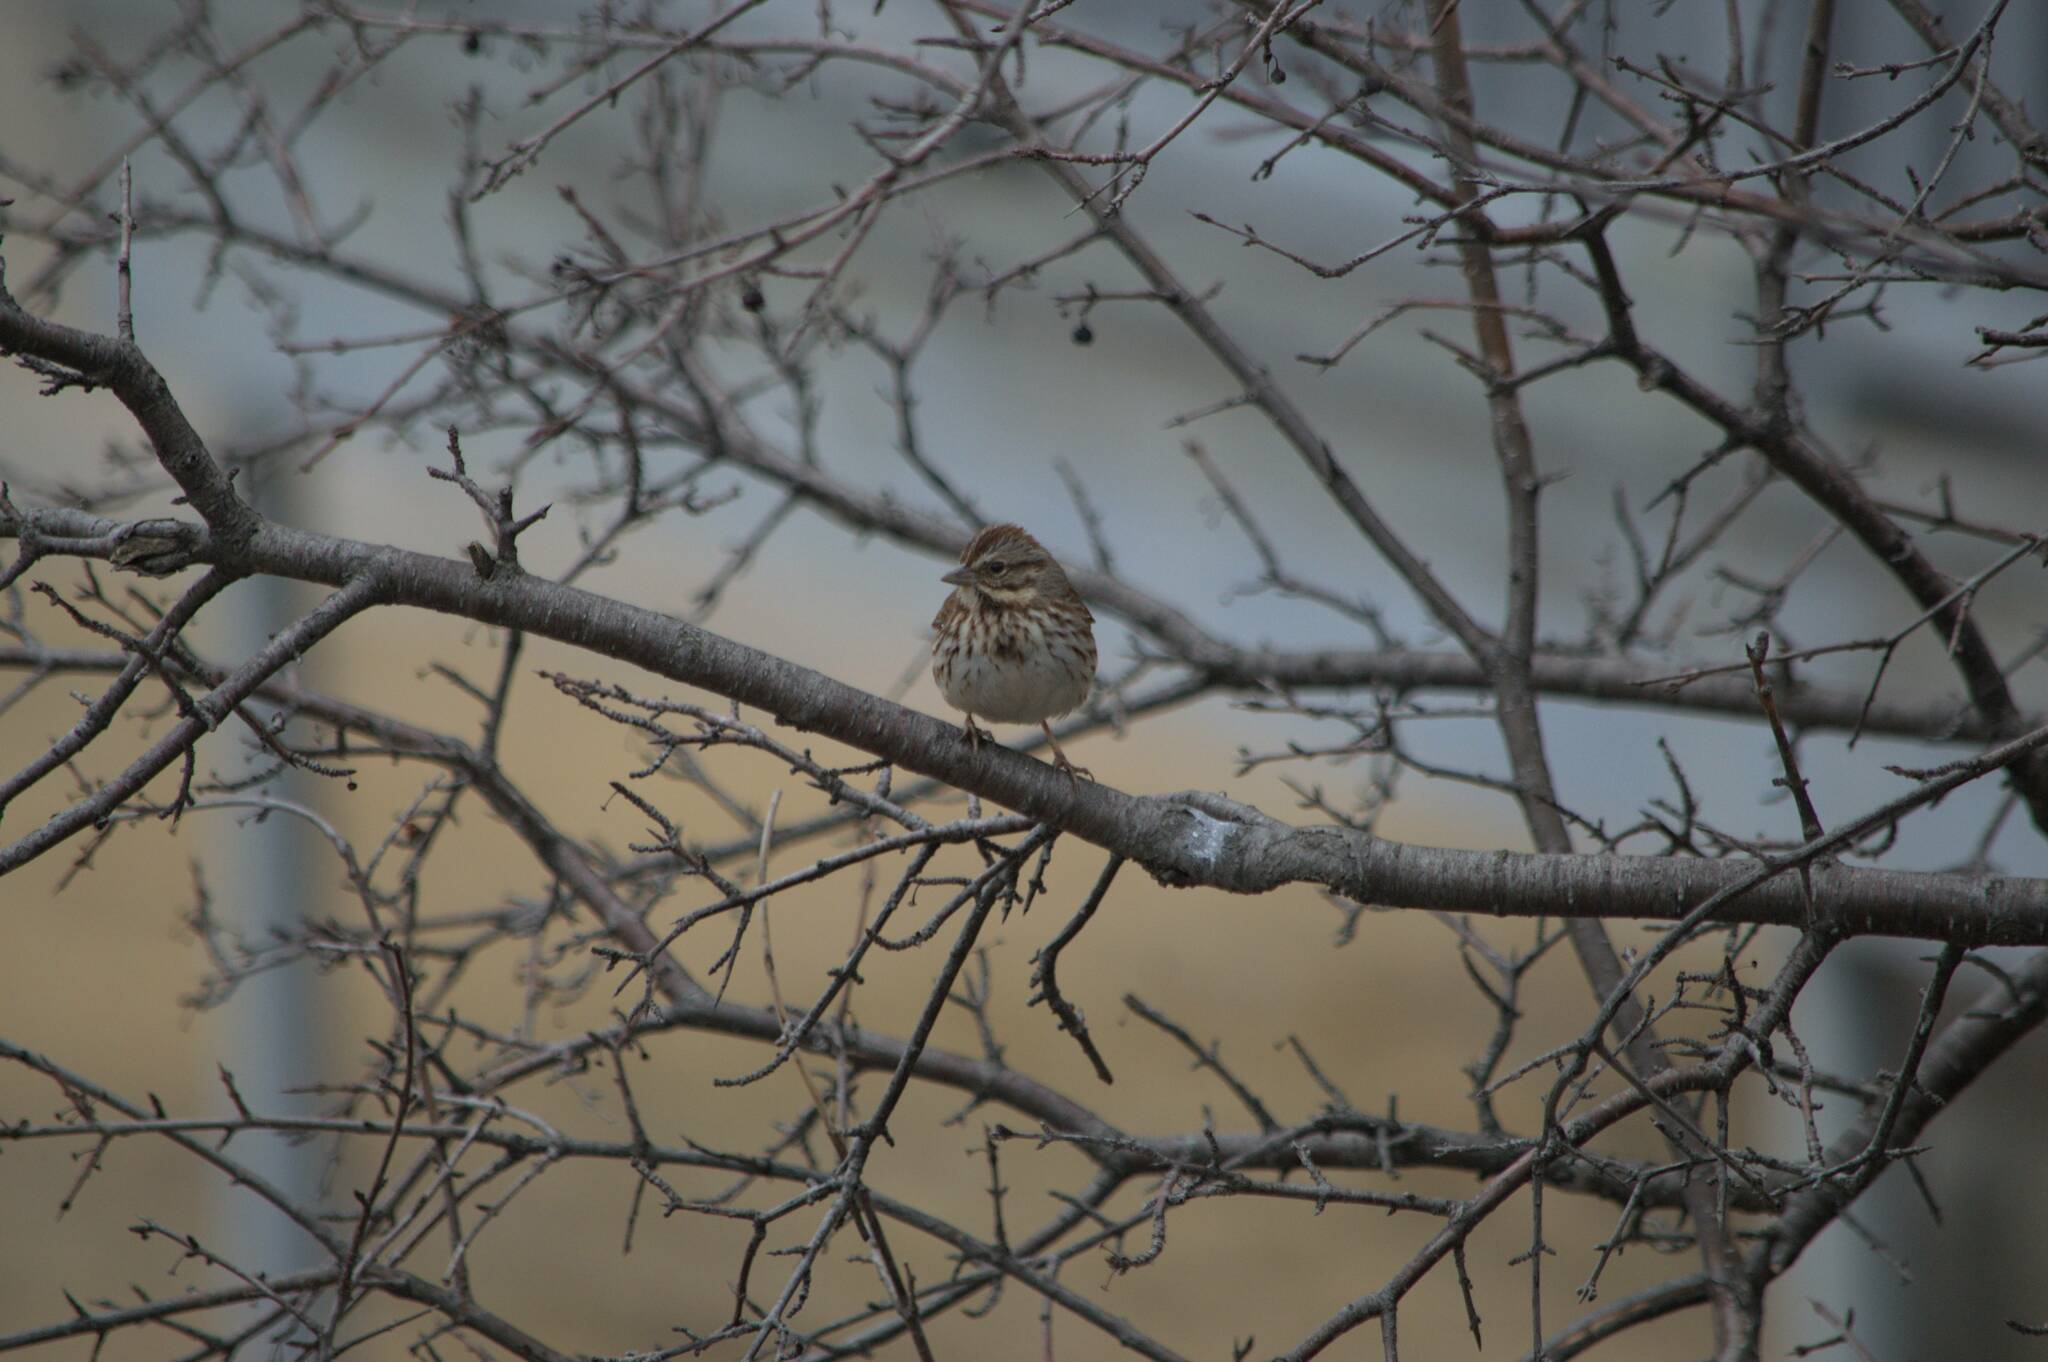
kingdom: Animalia
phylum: Chordata
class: Aves
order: Passeriformes
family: Passerellidae
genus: Melospiza
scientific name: Melospiza melodia
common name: Song sparrow
